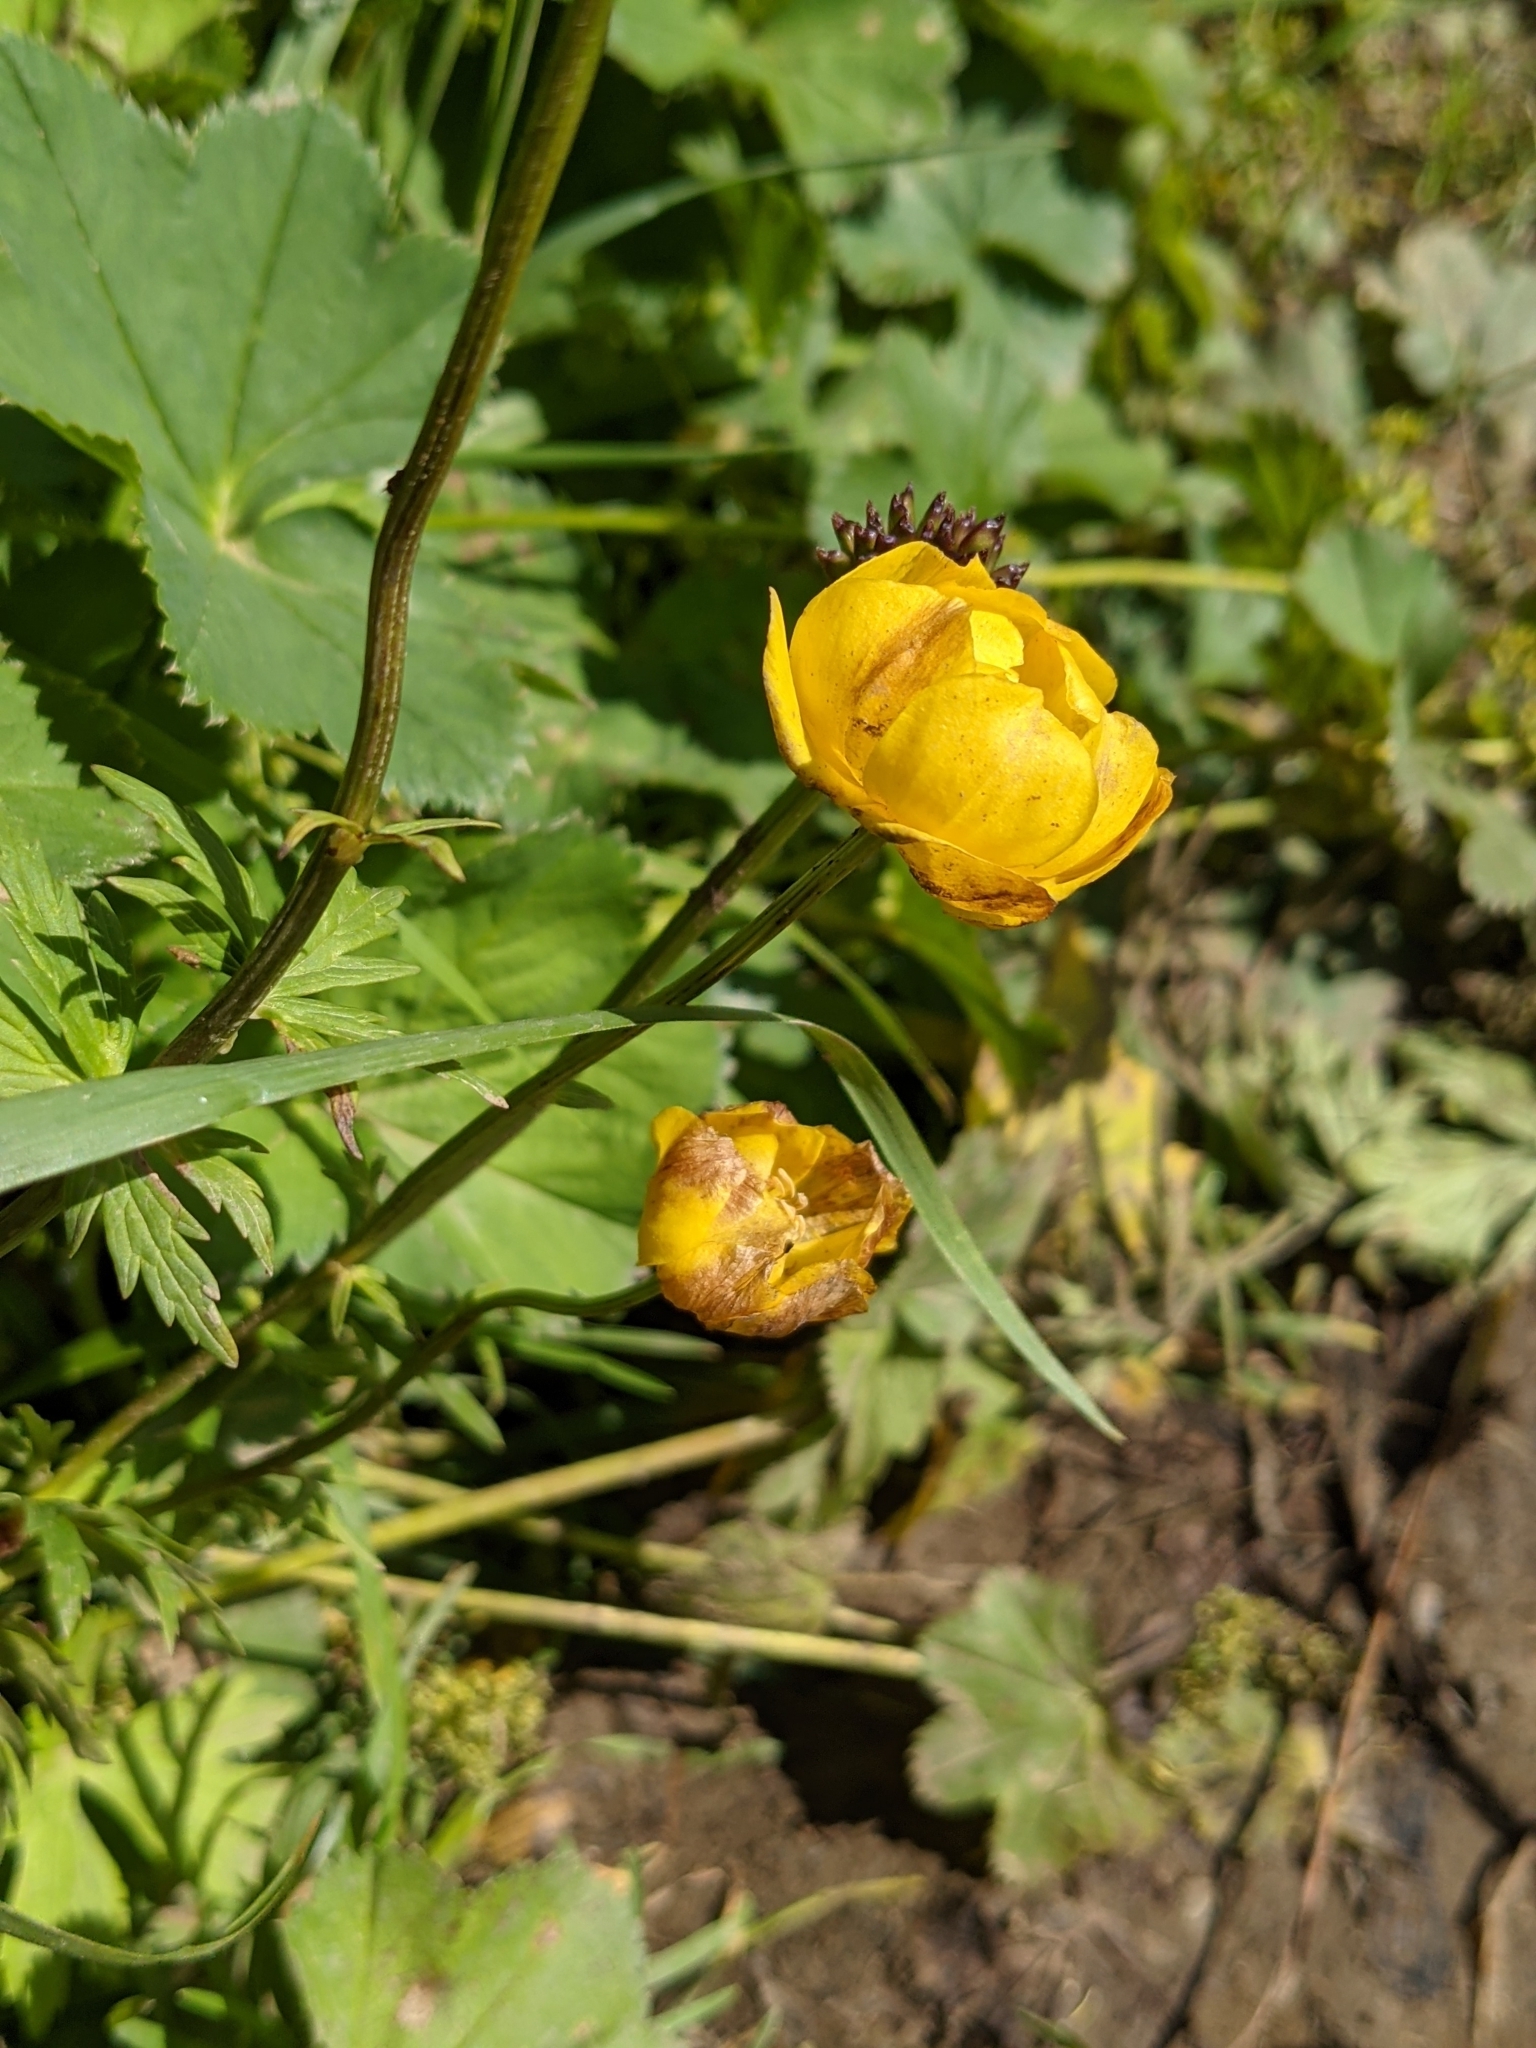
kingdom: Plantae
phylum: Tracheophyta
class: Magnoliopsida
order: Ranunculales
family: Ranunculaceae
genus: Trollius
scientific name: Trollius europaeus
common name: European globeflower
